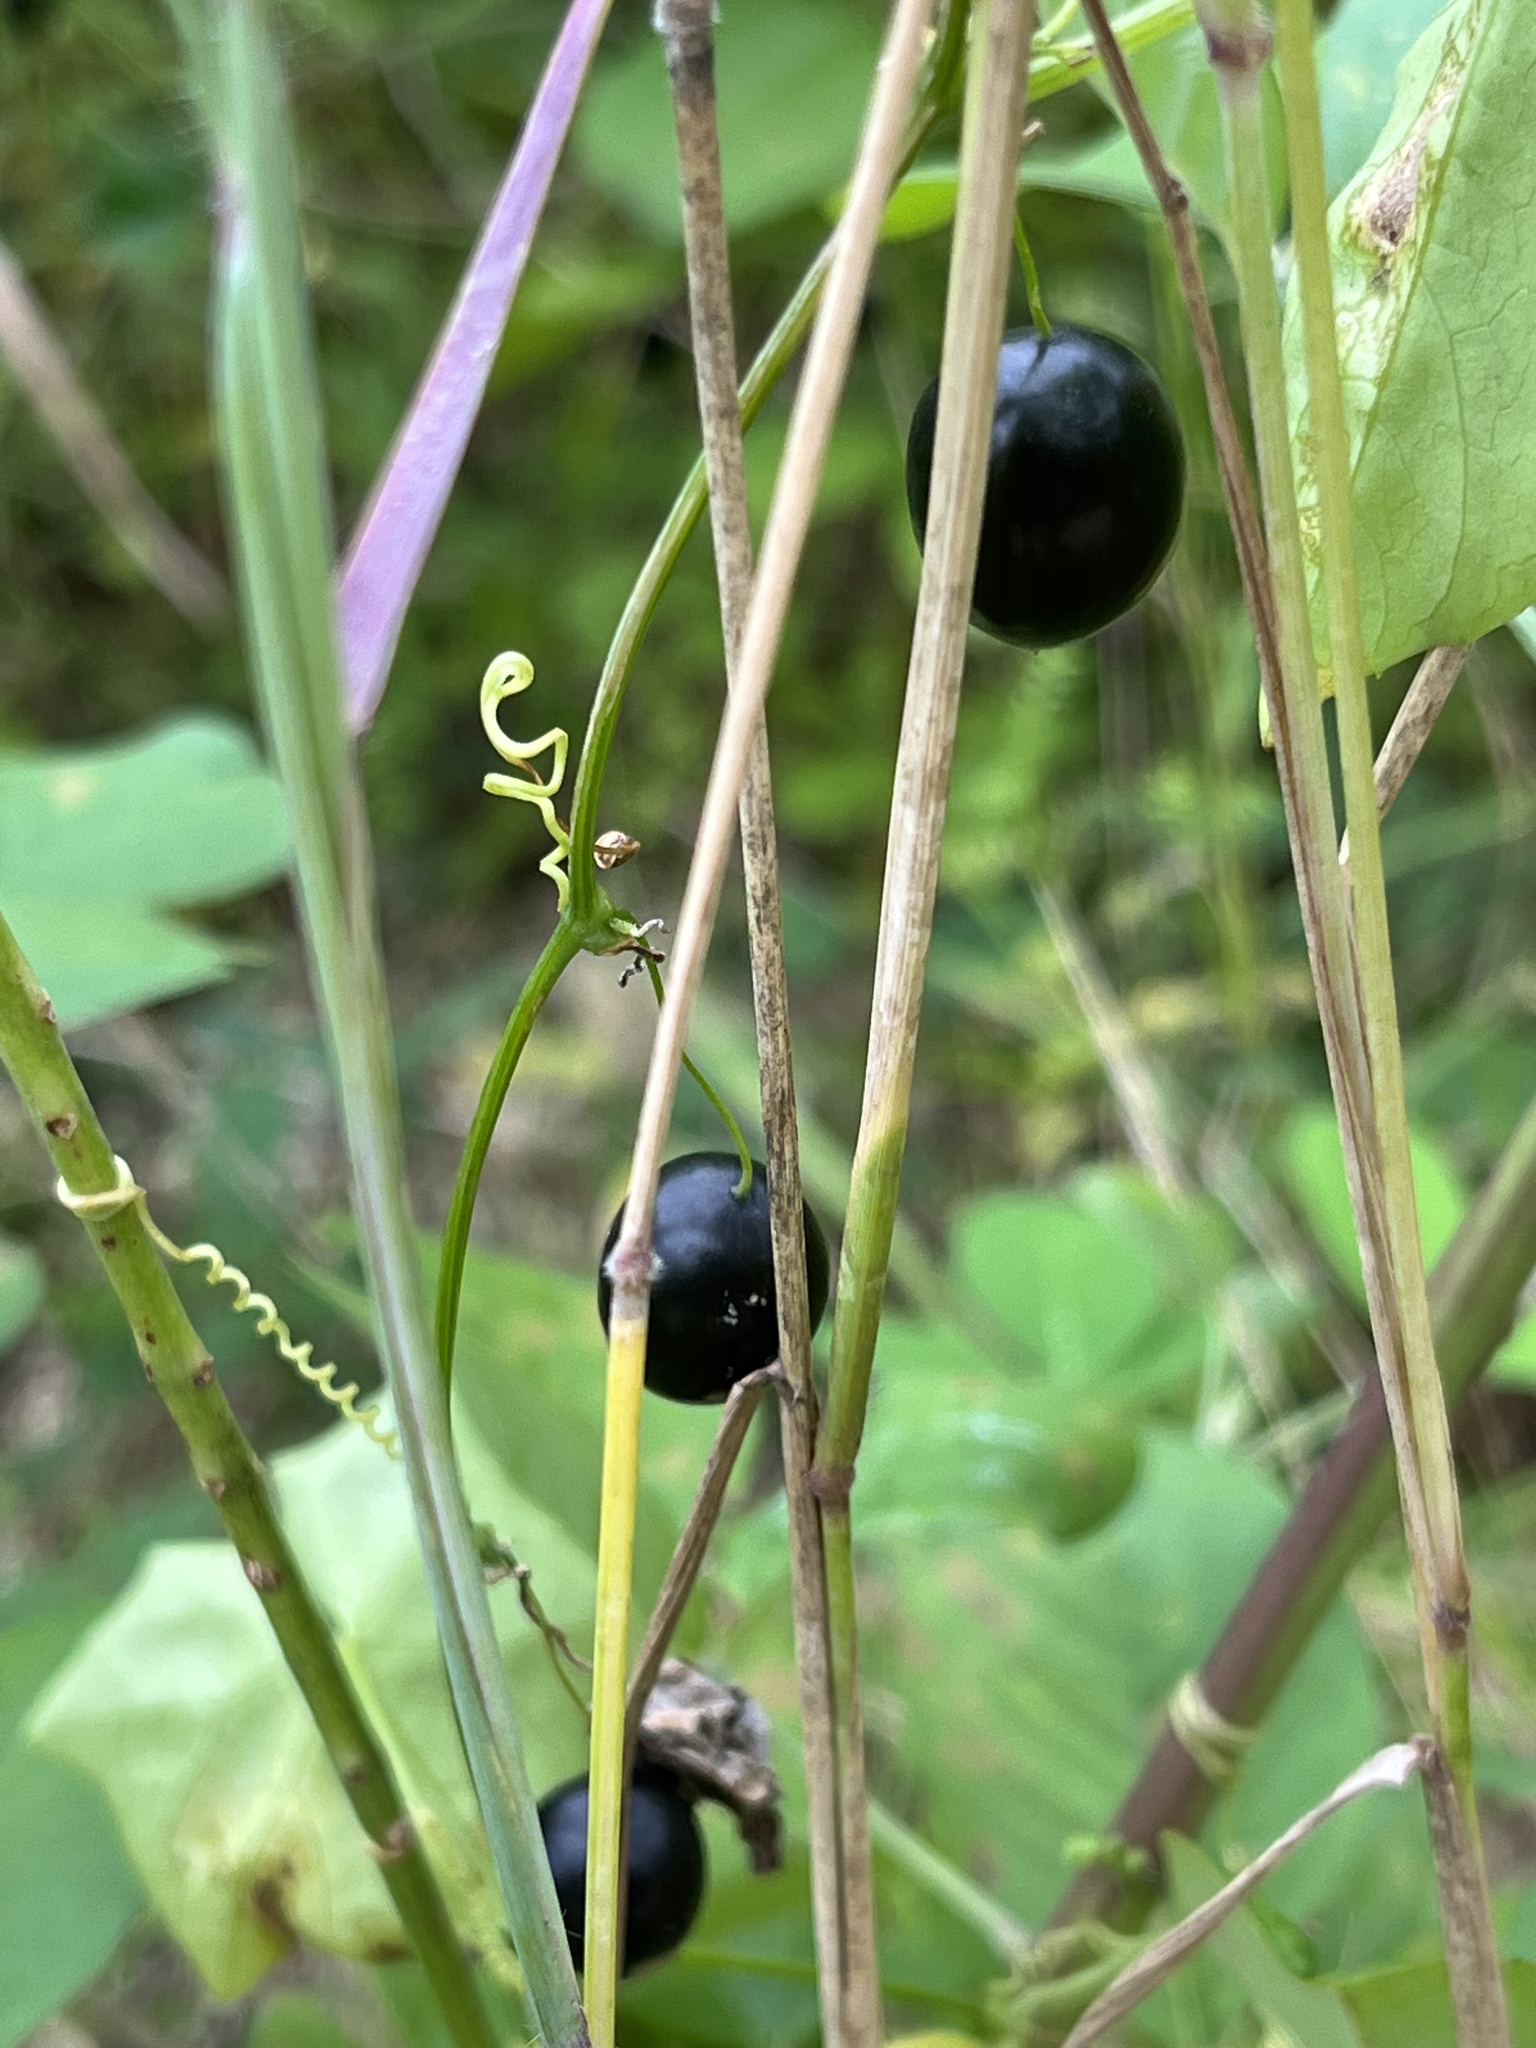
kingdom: Plantae
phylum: Tracheophyta
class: Magnoliopsida
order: Cucurbitales
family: Cucurbitaceae
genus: Melothria
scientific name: Melothria pendula
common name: Creeping-cucumber
